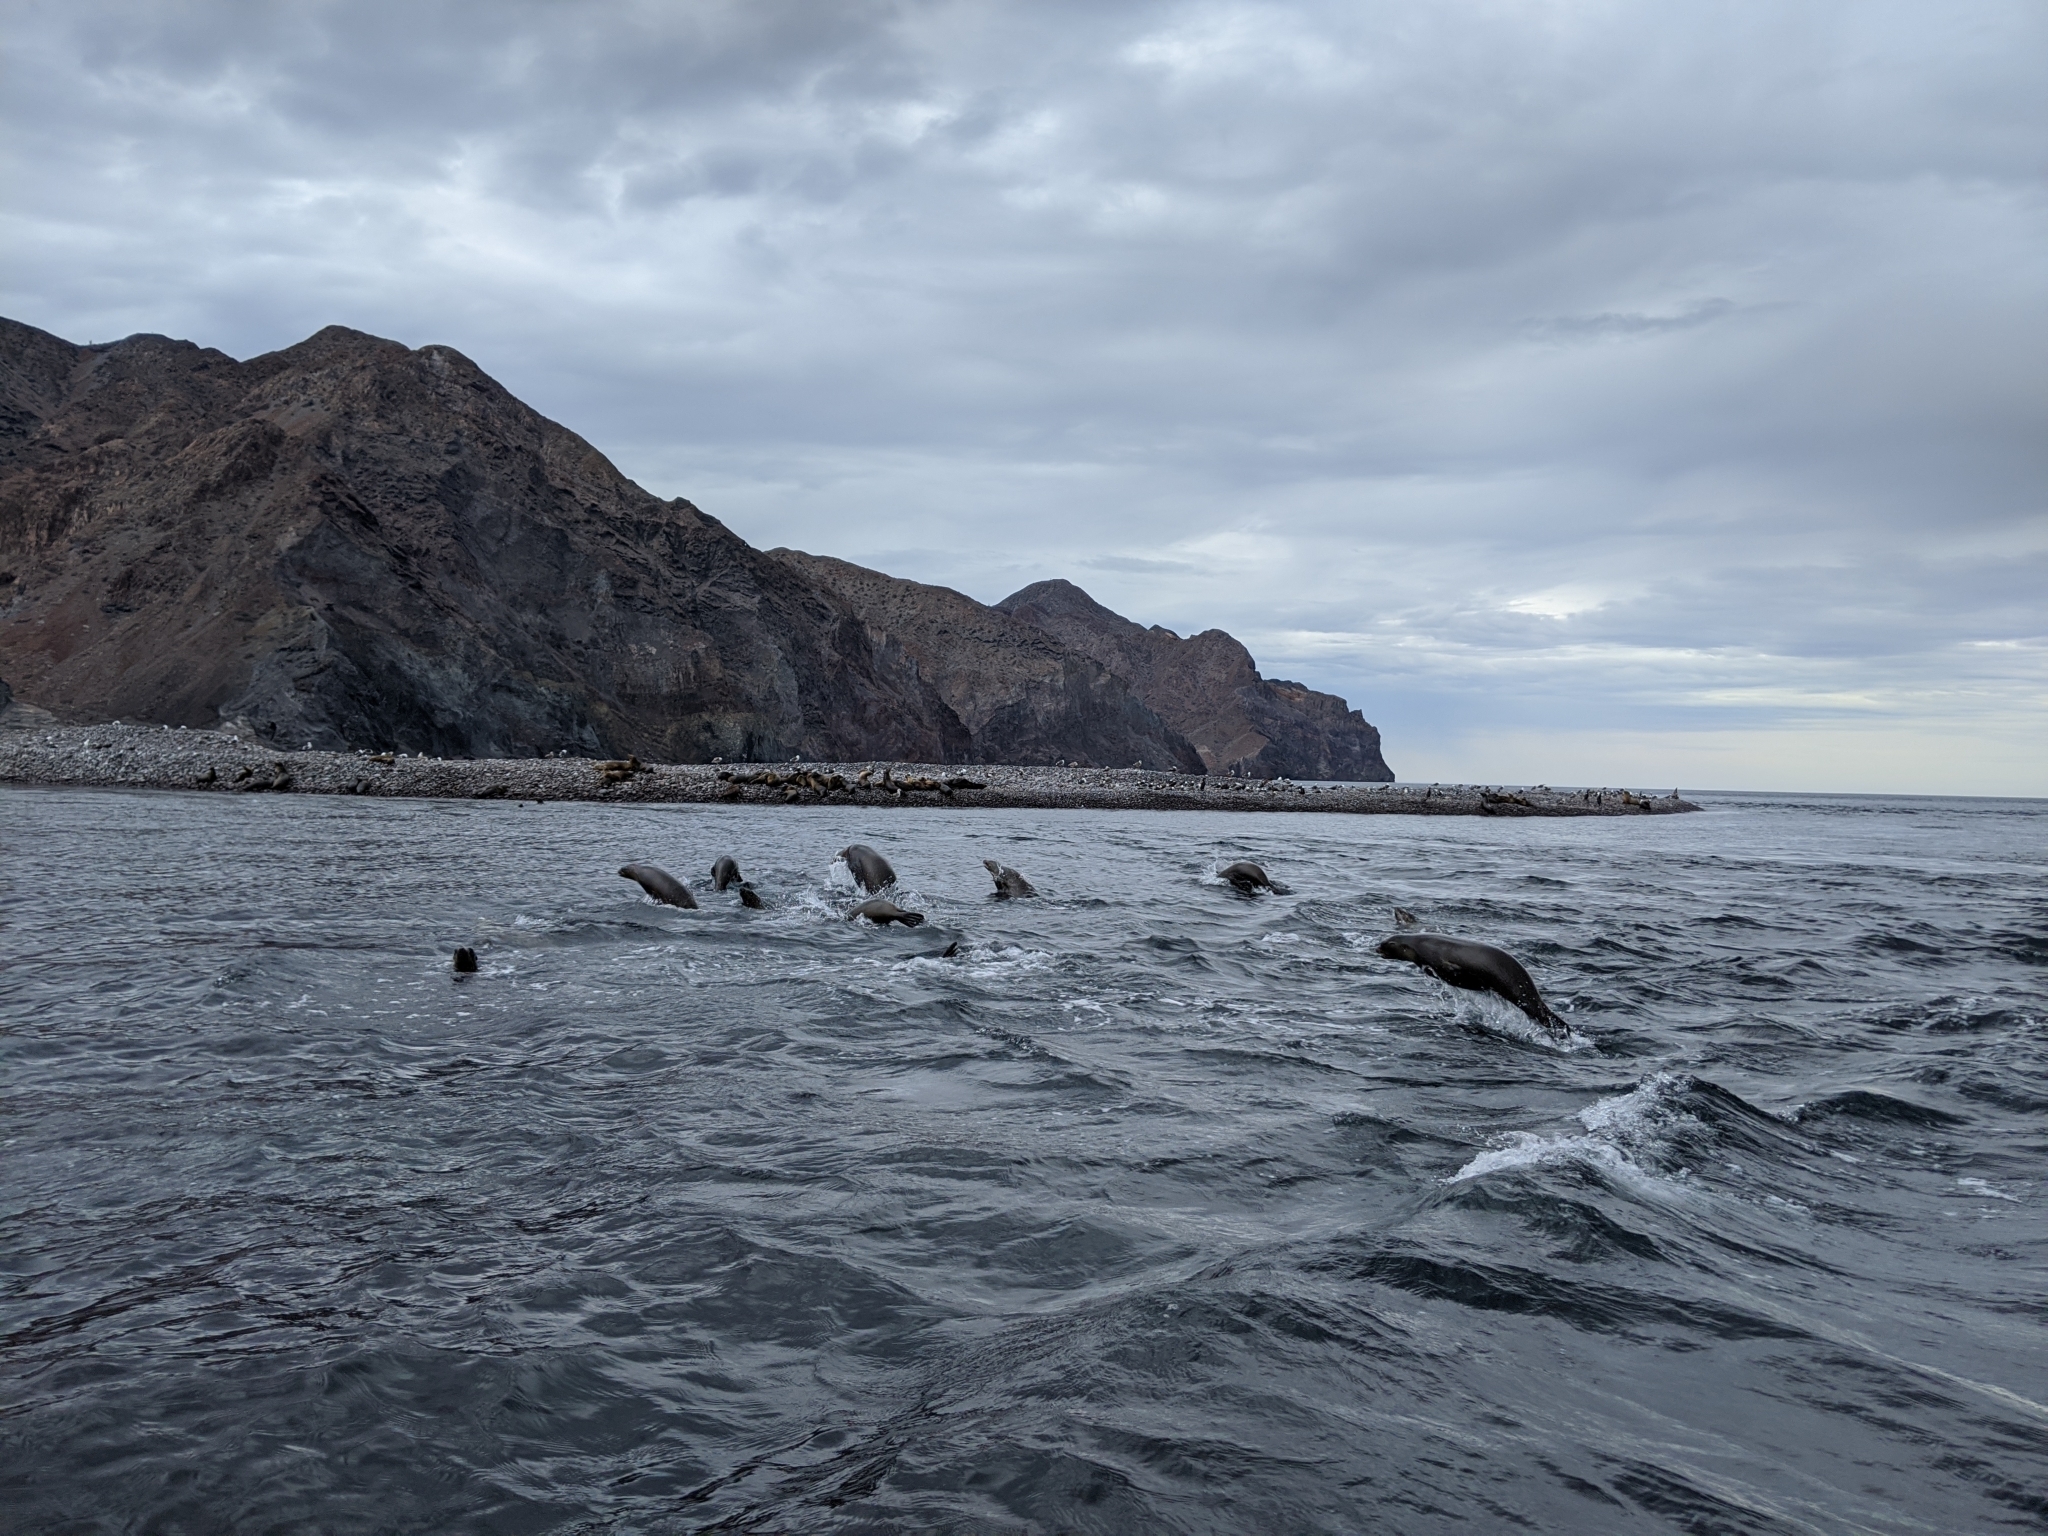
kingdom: Animalia
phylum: Chordata
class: Mammalia
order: Carnivora
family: Otariidae
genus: Zalophus
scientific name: Zalophus californianus
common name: California sea lion
